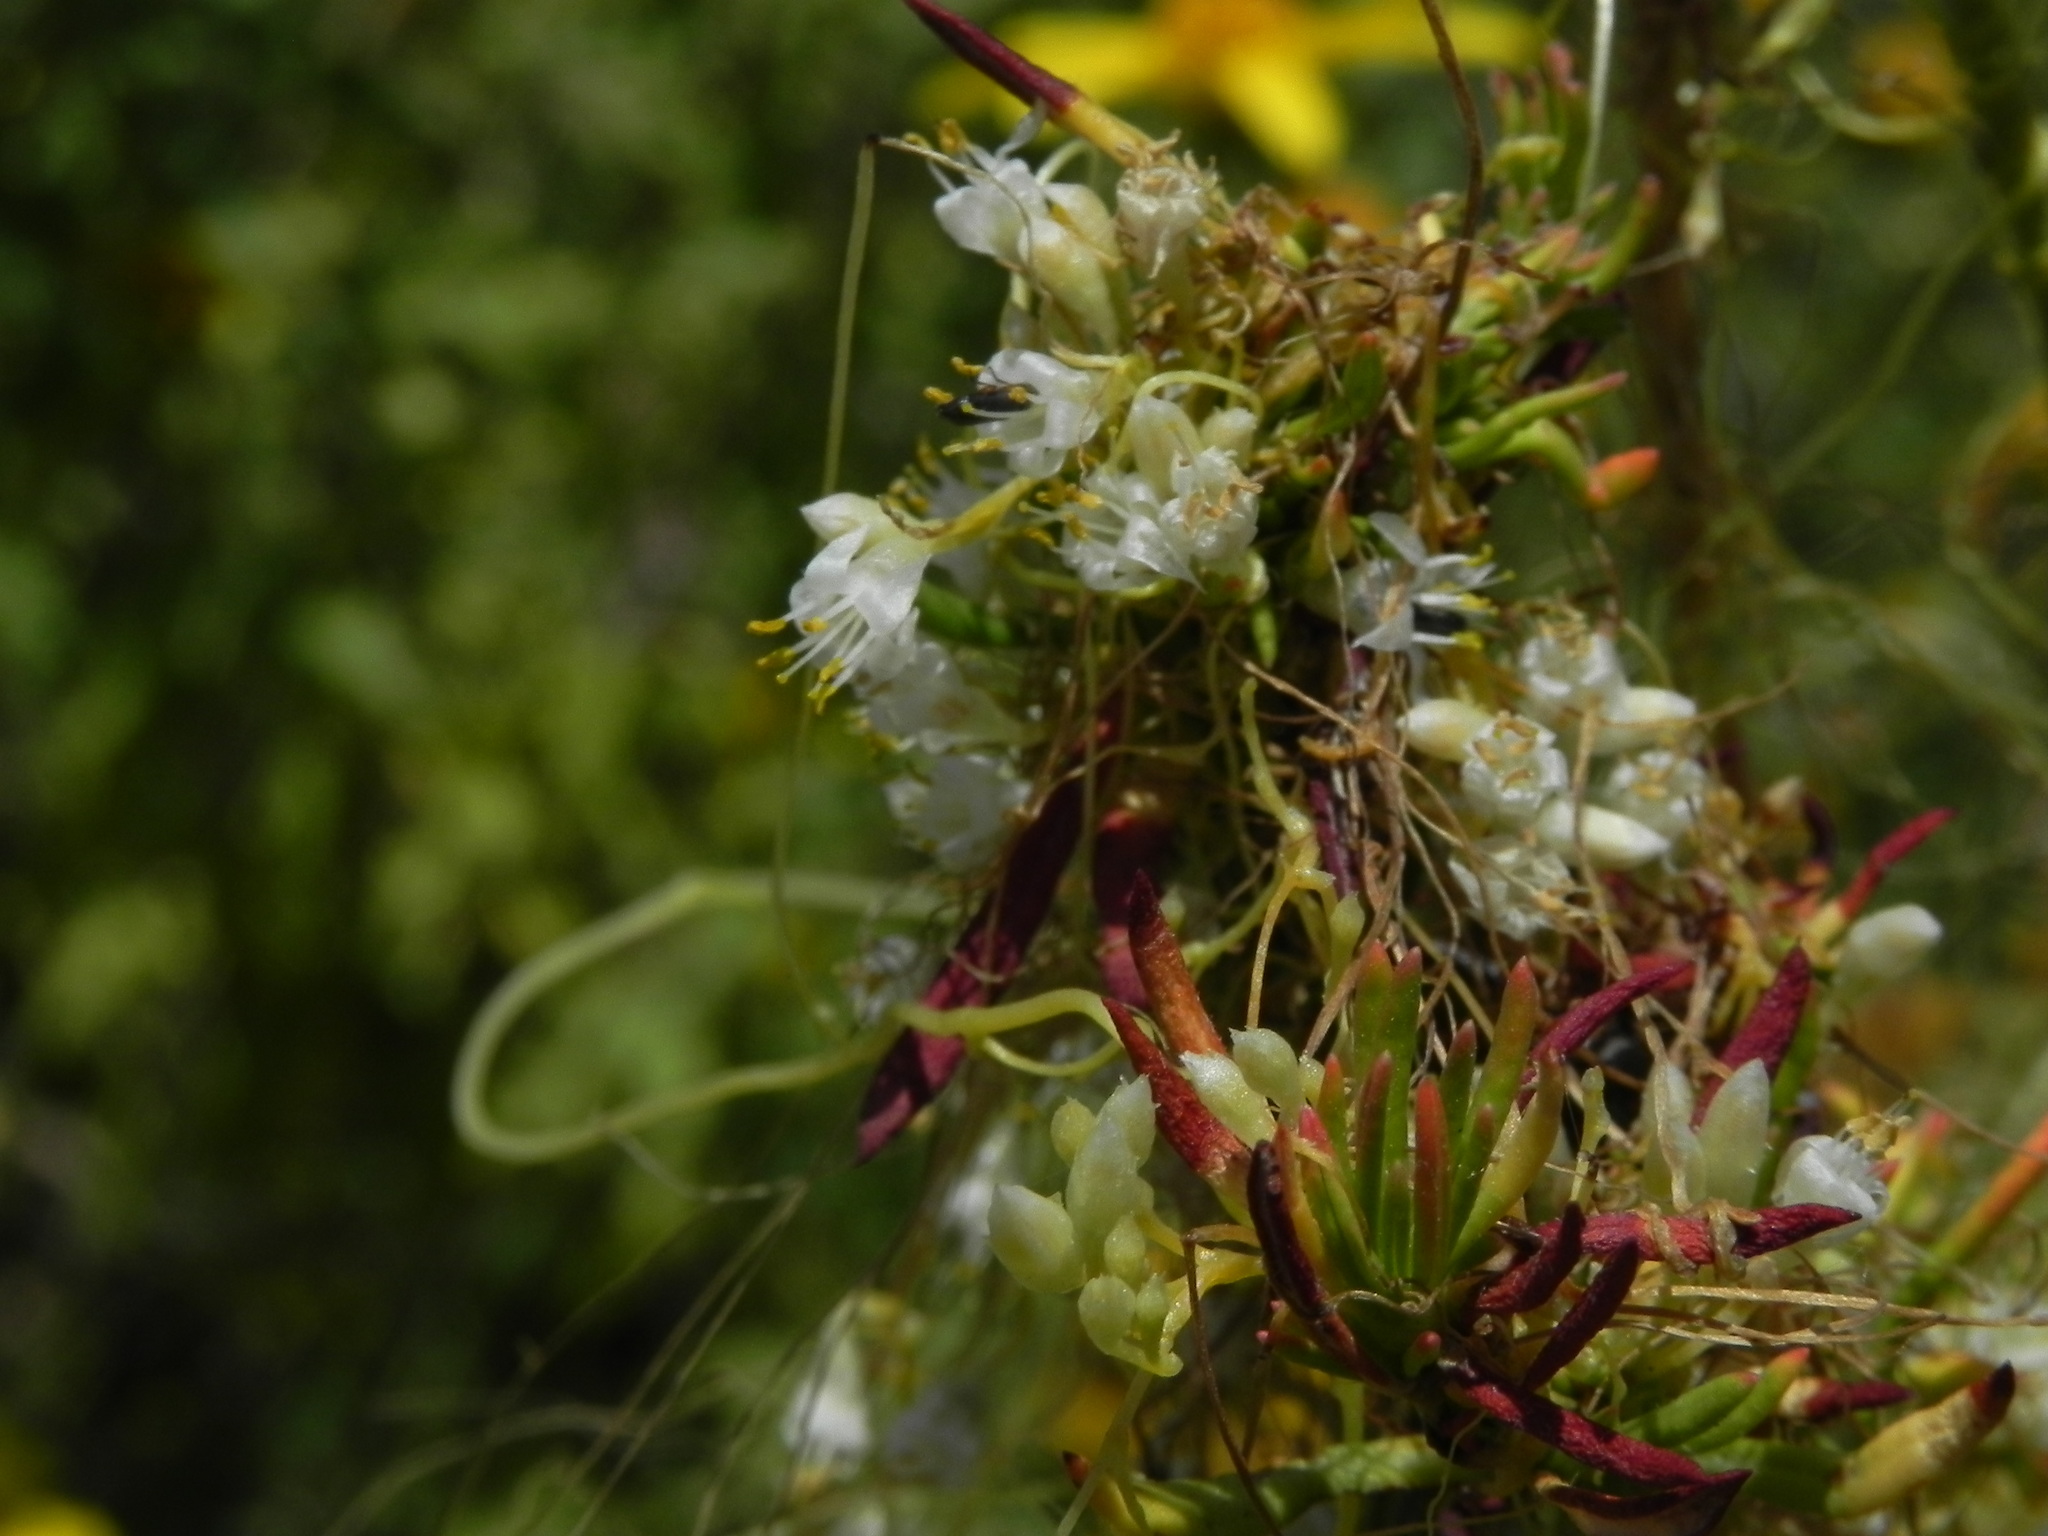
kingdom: Plantae
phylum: Tracheophyta
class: Magnoliopsida
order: Solanales
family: Convolvulaceae
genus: Cuscuta
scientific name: Cuscuta californica
